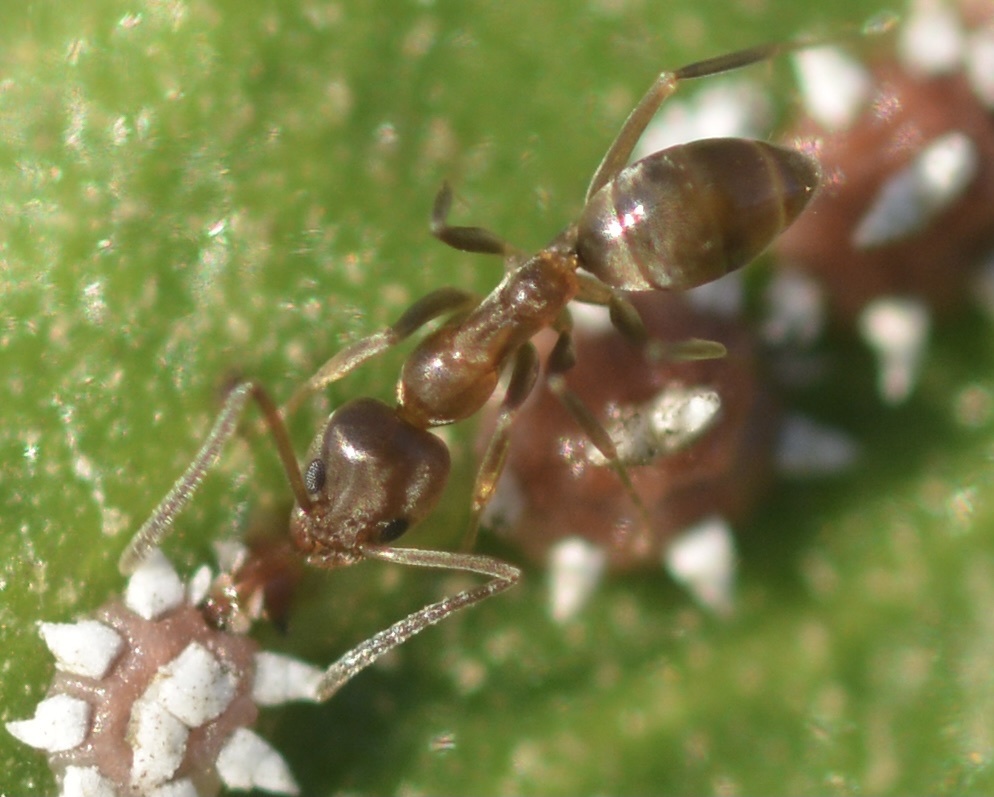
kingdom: Animalia
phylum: Arthropoda
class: Insecta
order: Hymenoptera
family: Formicidae
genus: Linepithema
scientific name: Linepithema humile
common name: Argentine ant
